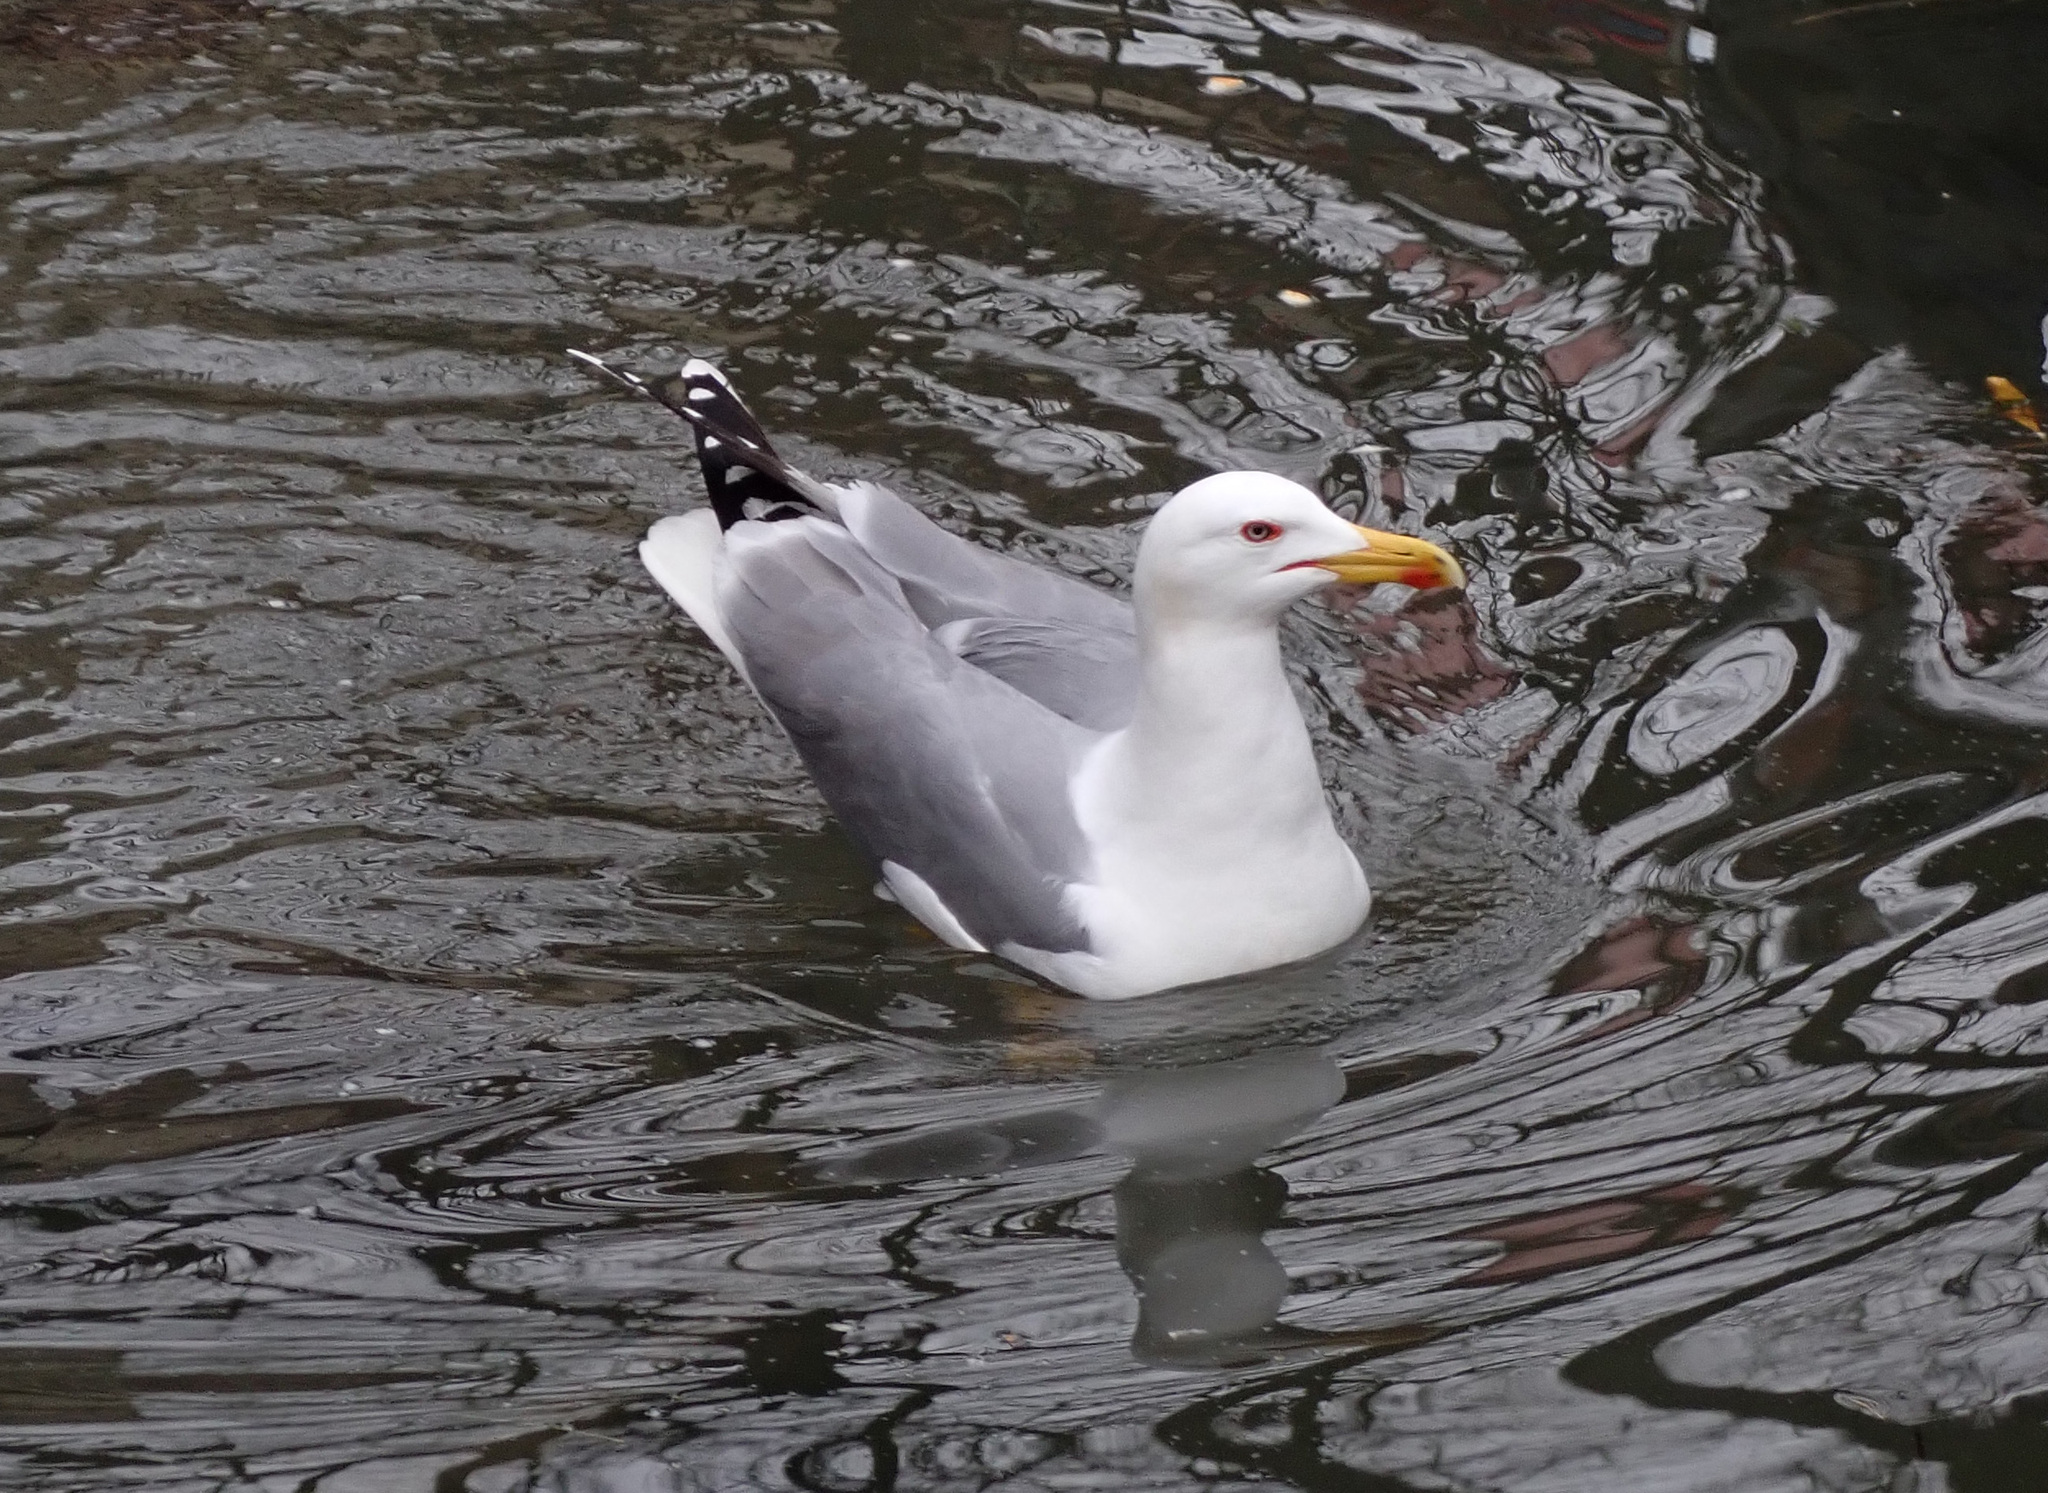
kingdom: Animalia
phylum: Chordata
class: Aves
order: Charadriiformes
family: Laridae
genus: Larus
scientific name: Larus michahellis
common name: Yellow-legged gull
